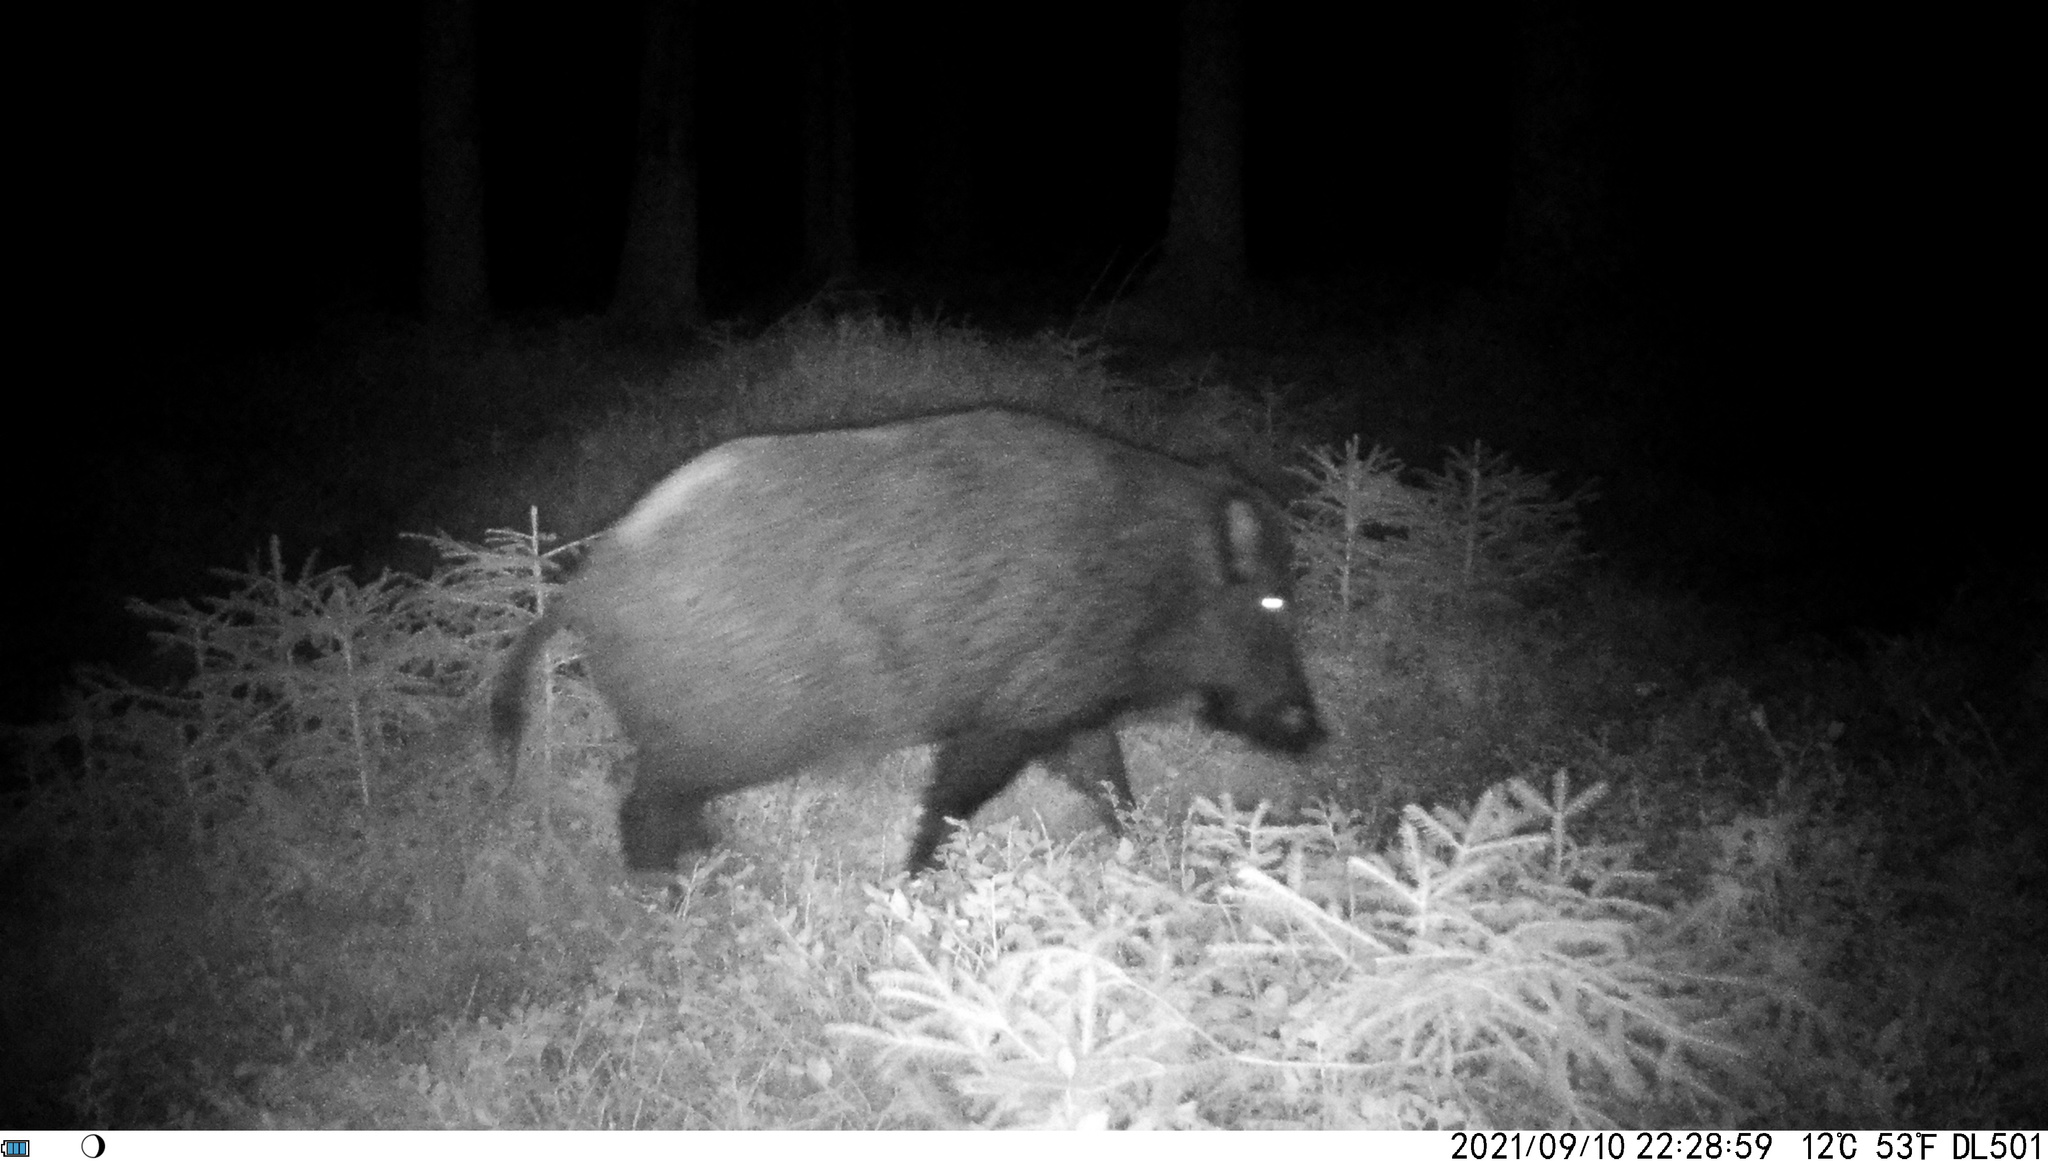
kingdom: Animalia
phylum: Chordata
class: Mammalia
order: Artiodactyla
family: Suidae
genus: Sus
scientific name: Sus scrofa
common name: Wild boar
